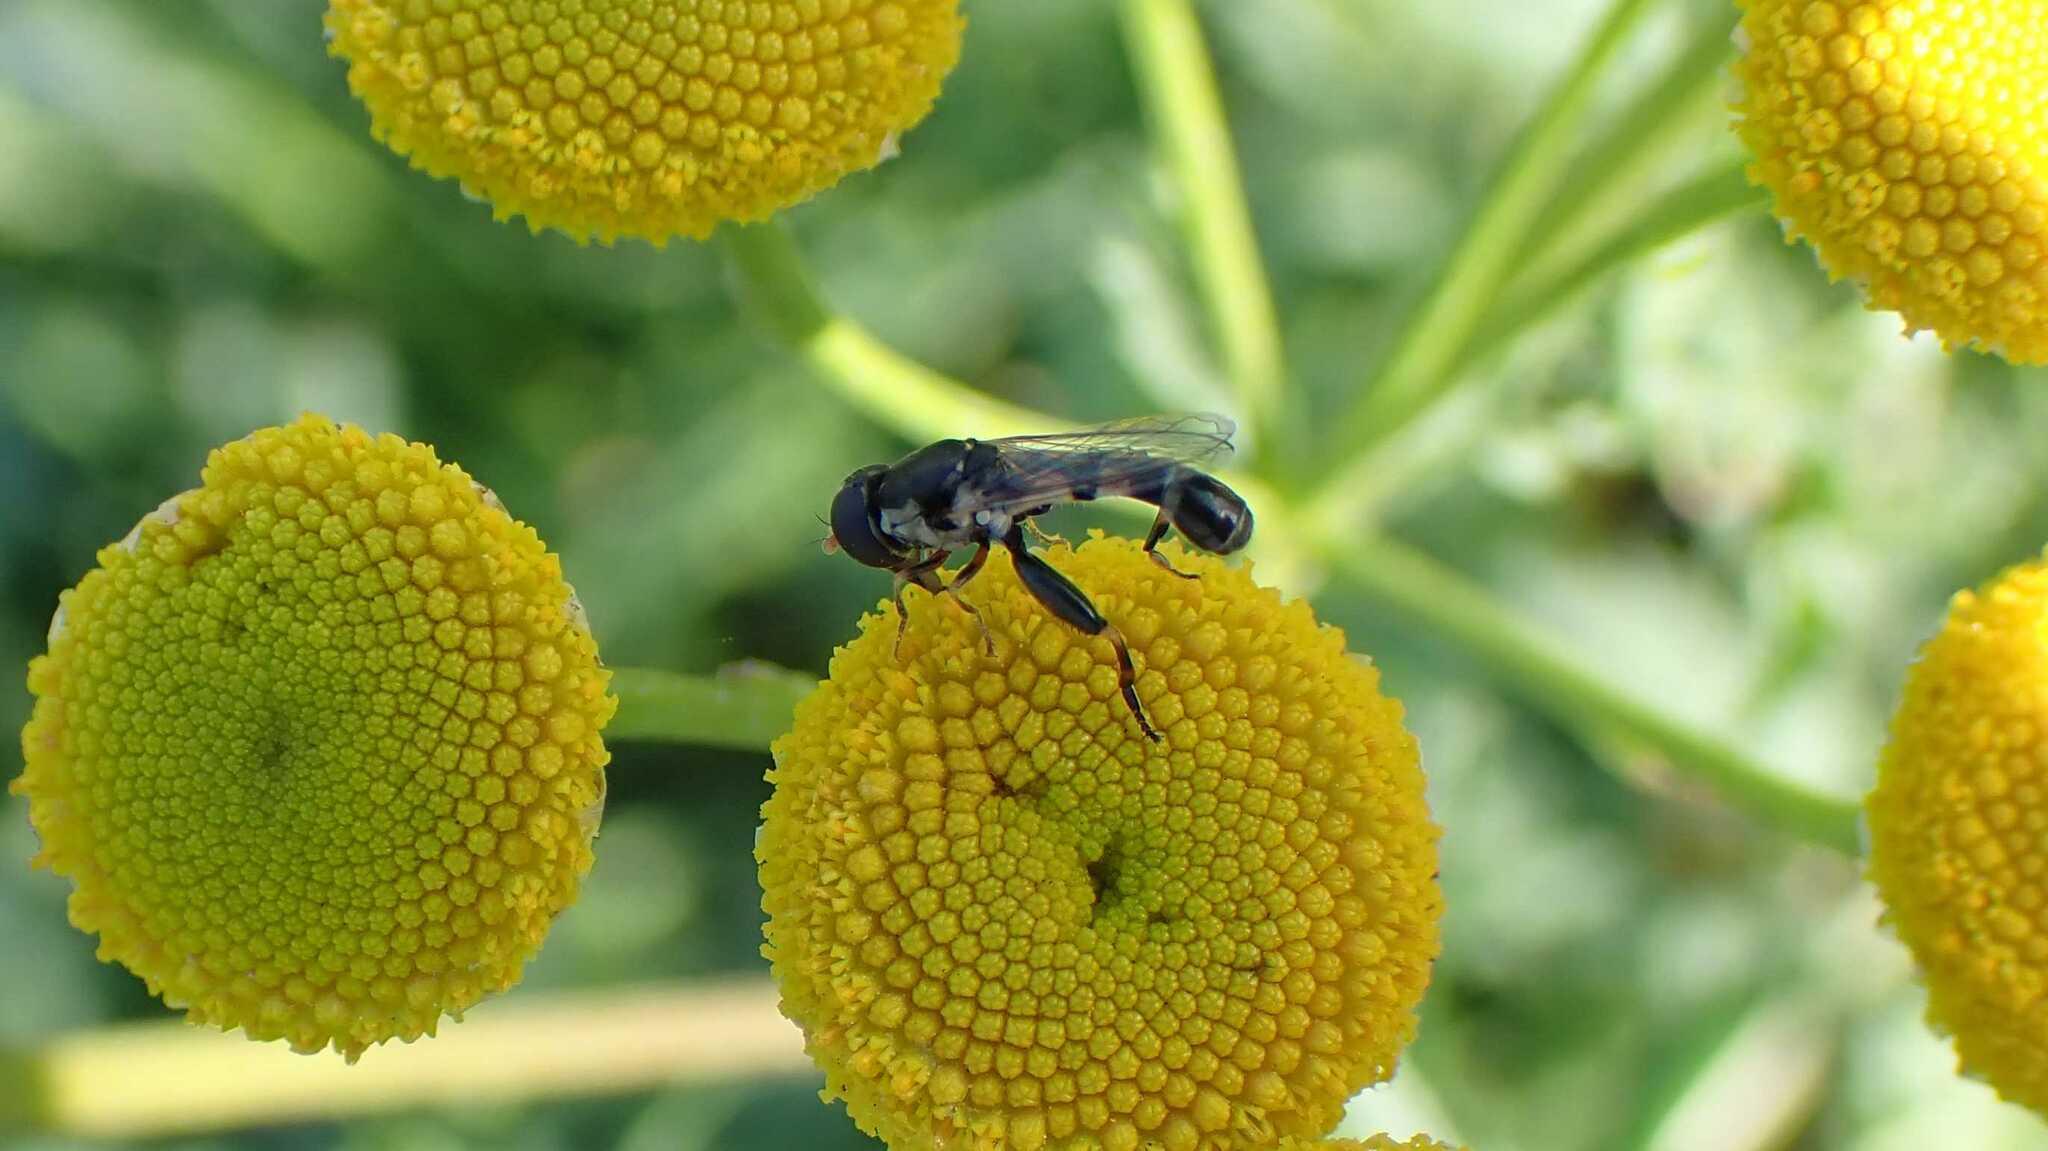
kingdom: Animalia
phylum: Arthropoda
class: Insecta
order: Diptera
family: Syrphidae
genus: Syritta
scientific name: Syritta pipiens
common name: Hover fly
